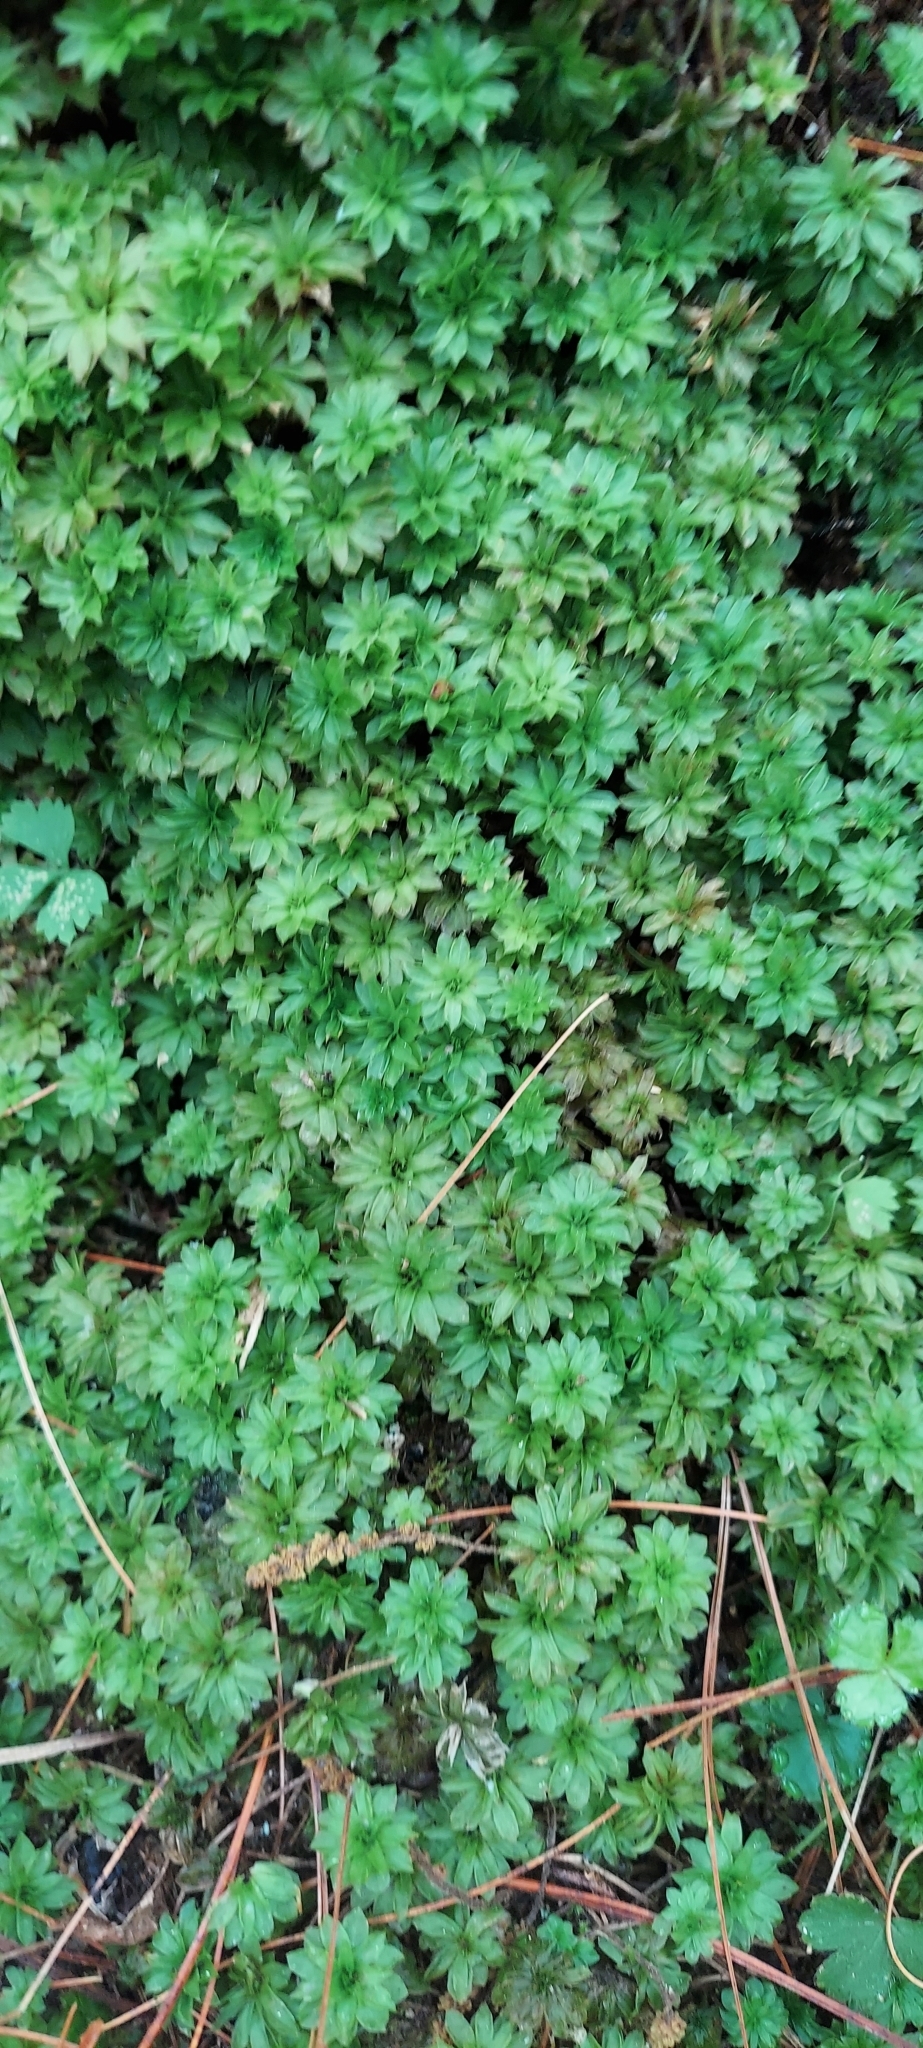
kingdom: Plantae
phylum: Bryophyta
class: Bryopsida
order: Bryales
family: Bryaceae
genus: Rhodobryum
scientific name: Rhodobryum ontariense
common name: Ontario rhodobryum moss
